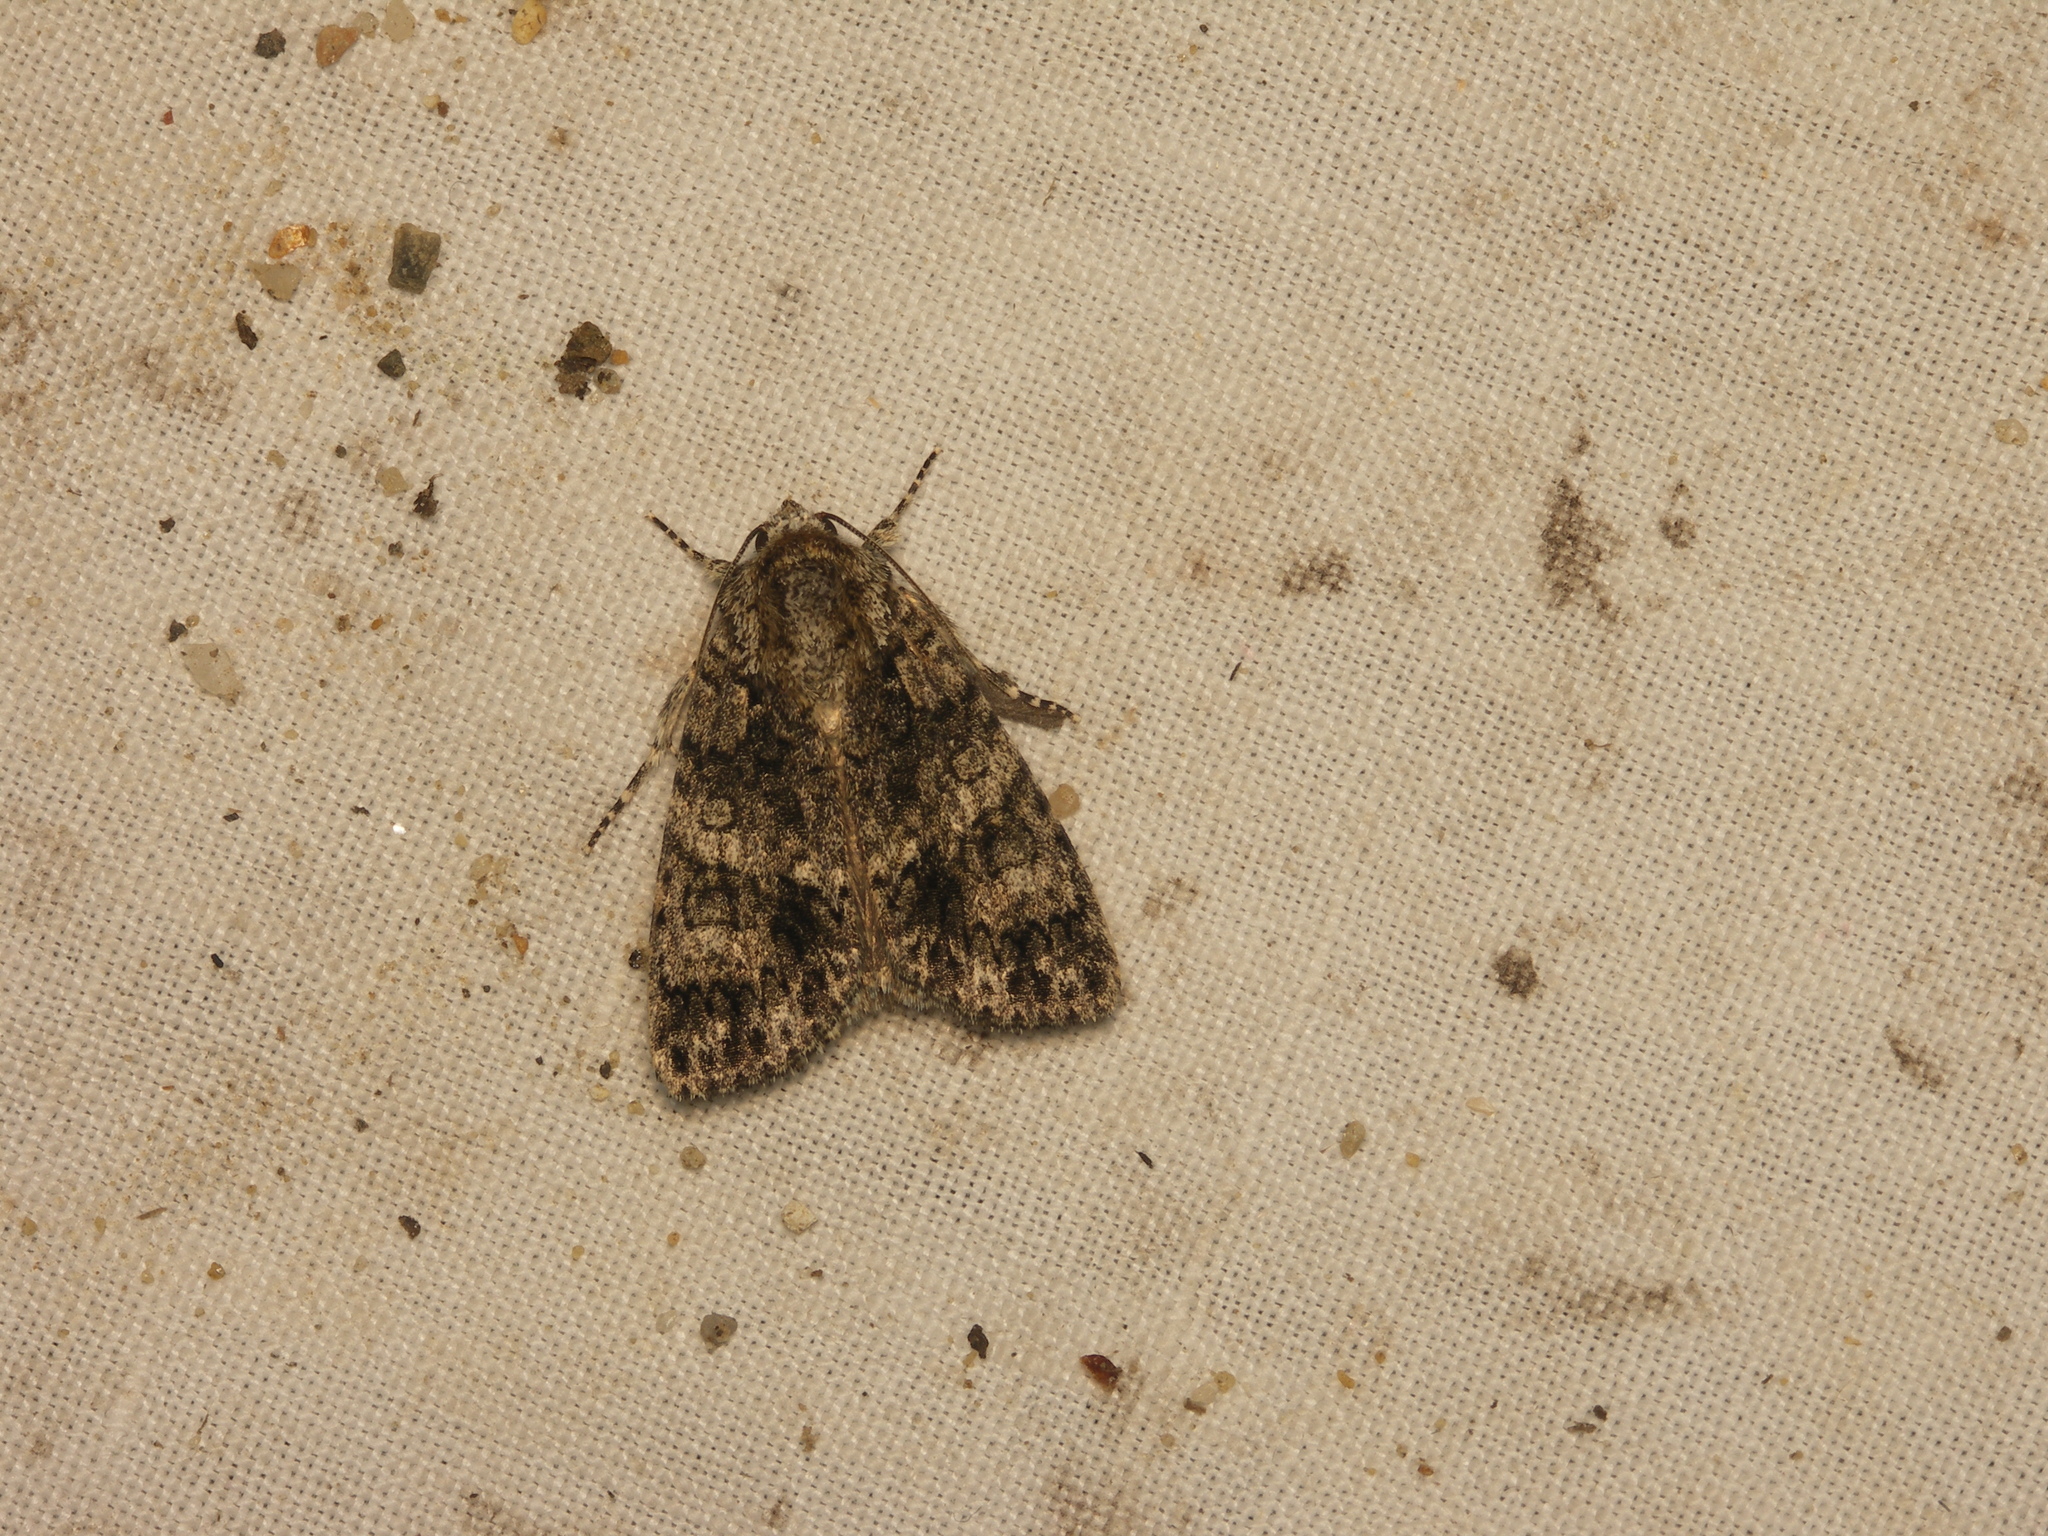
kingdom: Animalia
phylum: Arthropoda
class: Insecta
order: Lepidoptera
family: Noctuidae
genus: Acronicta
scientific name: Acronicta rumicis
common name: Knot grass
